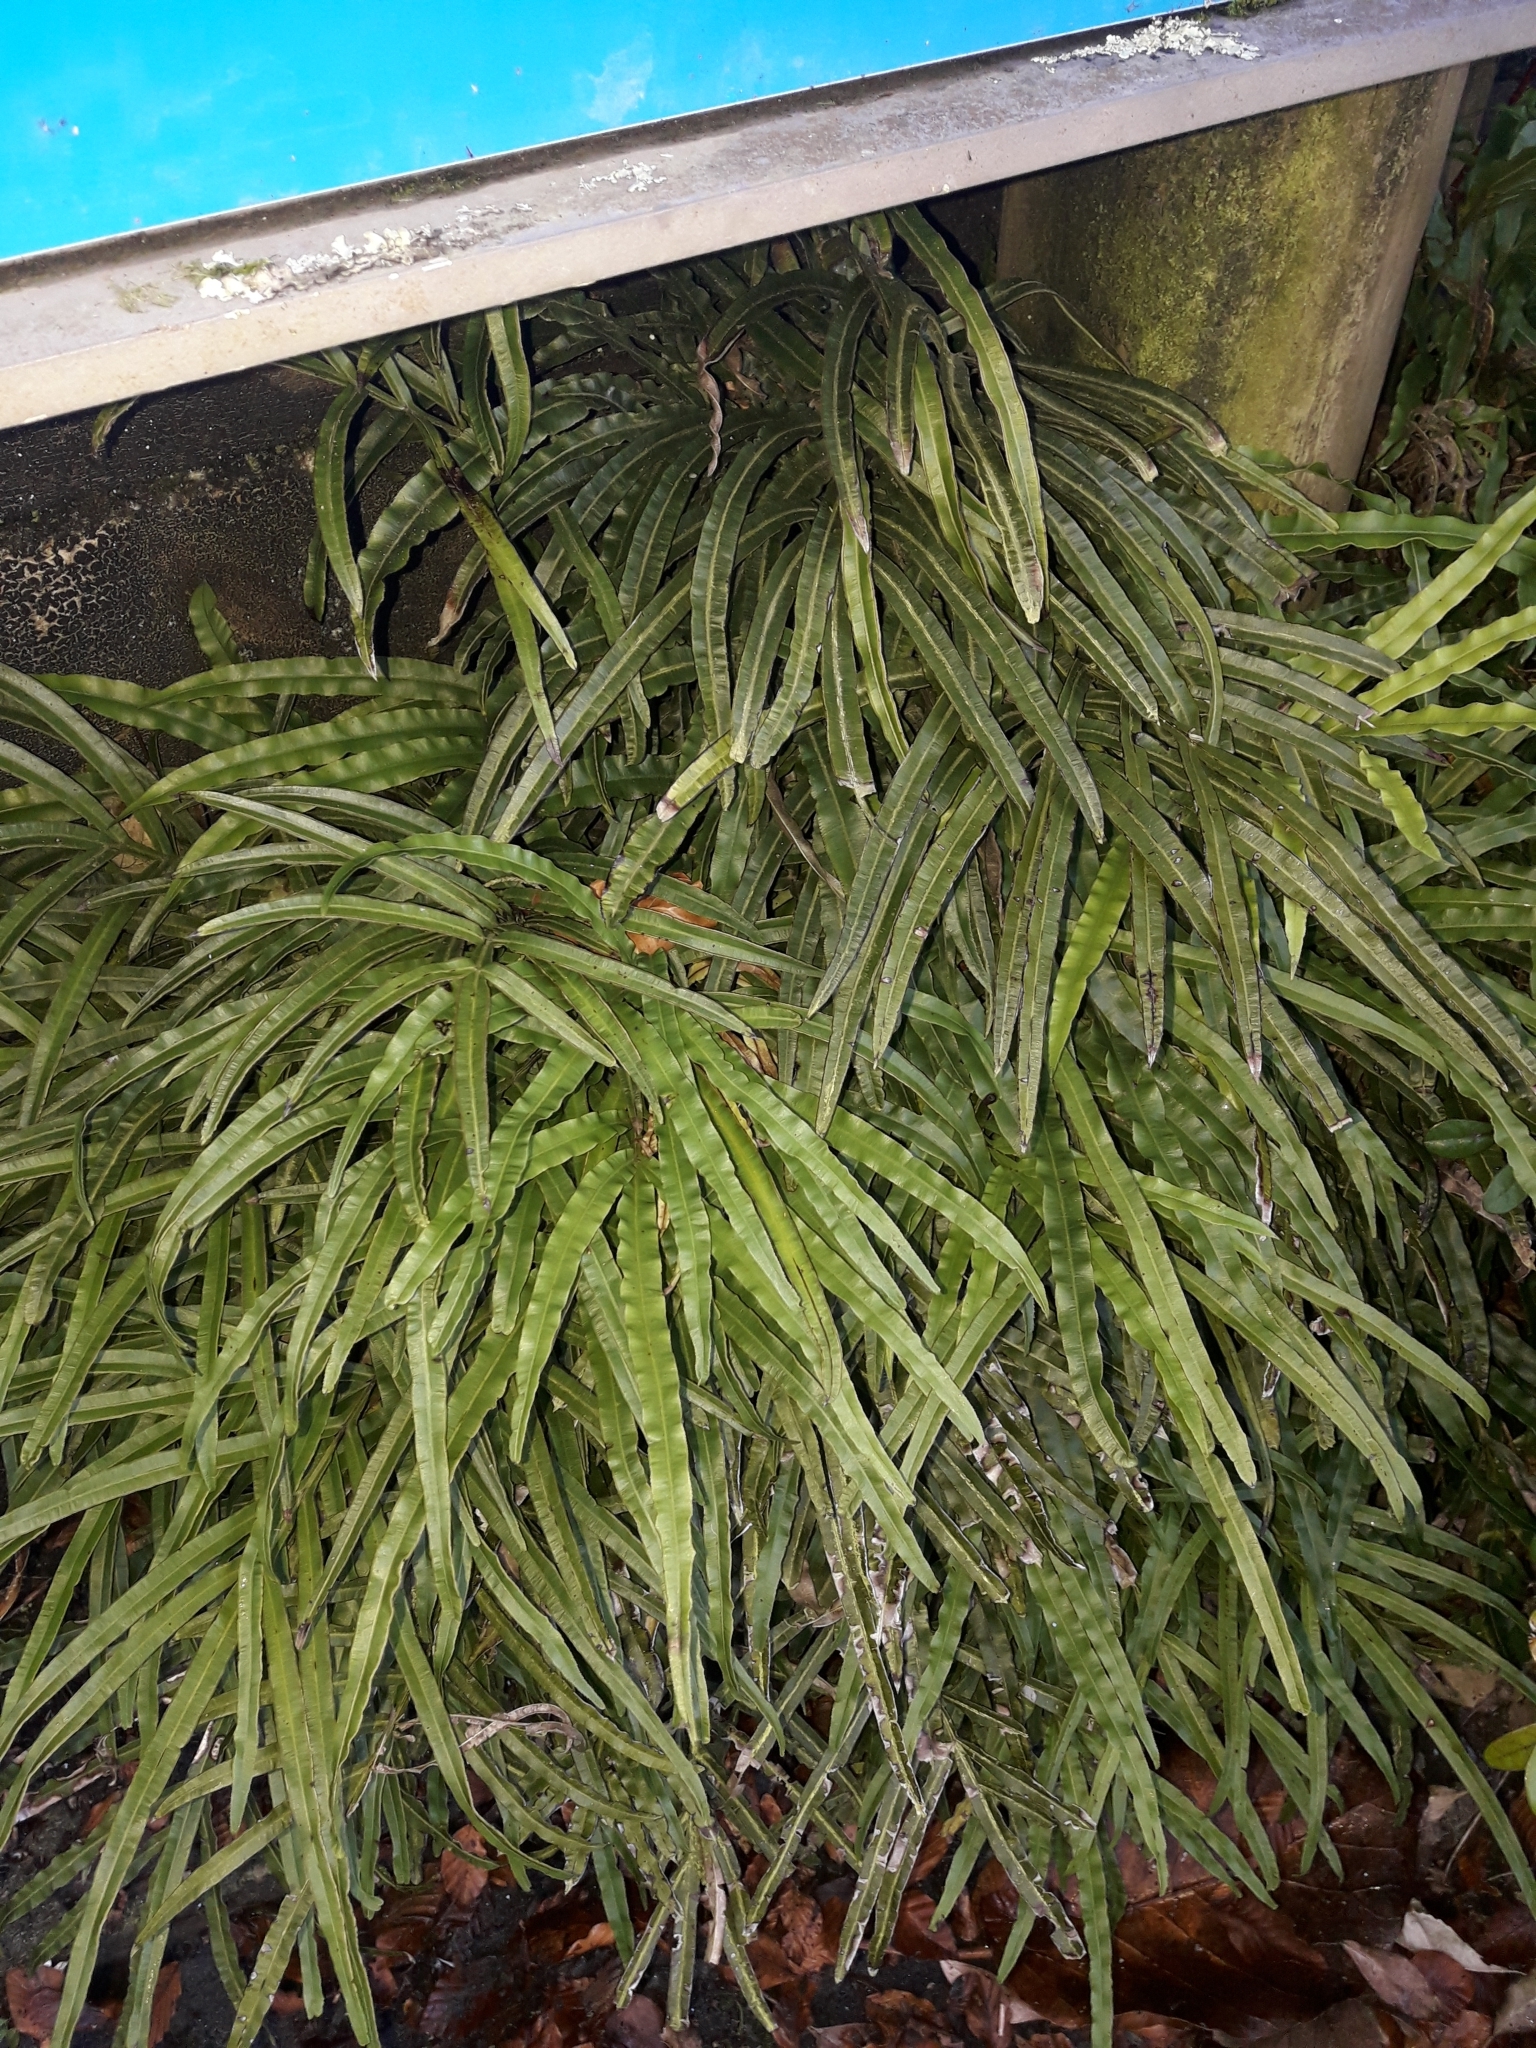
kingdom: Plantae
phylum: Tracheophyta
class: Polypodiopsida
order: Polypodiales
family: Pteridaceae
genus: Pteris
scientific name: Pteris cretica
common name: Ribbon fern
